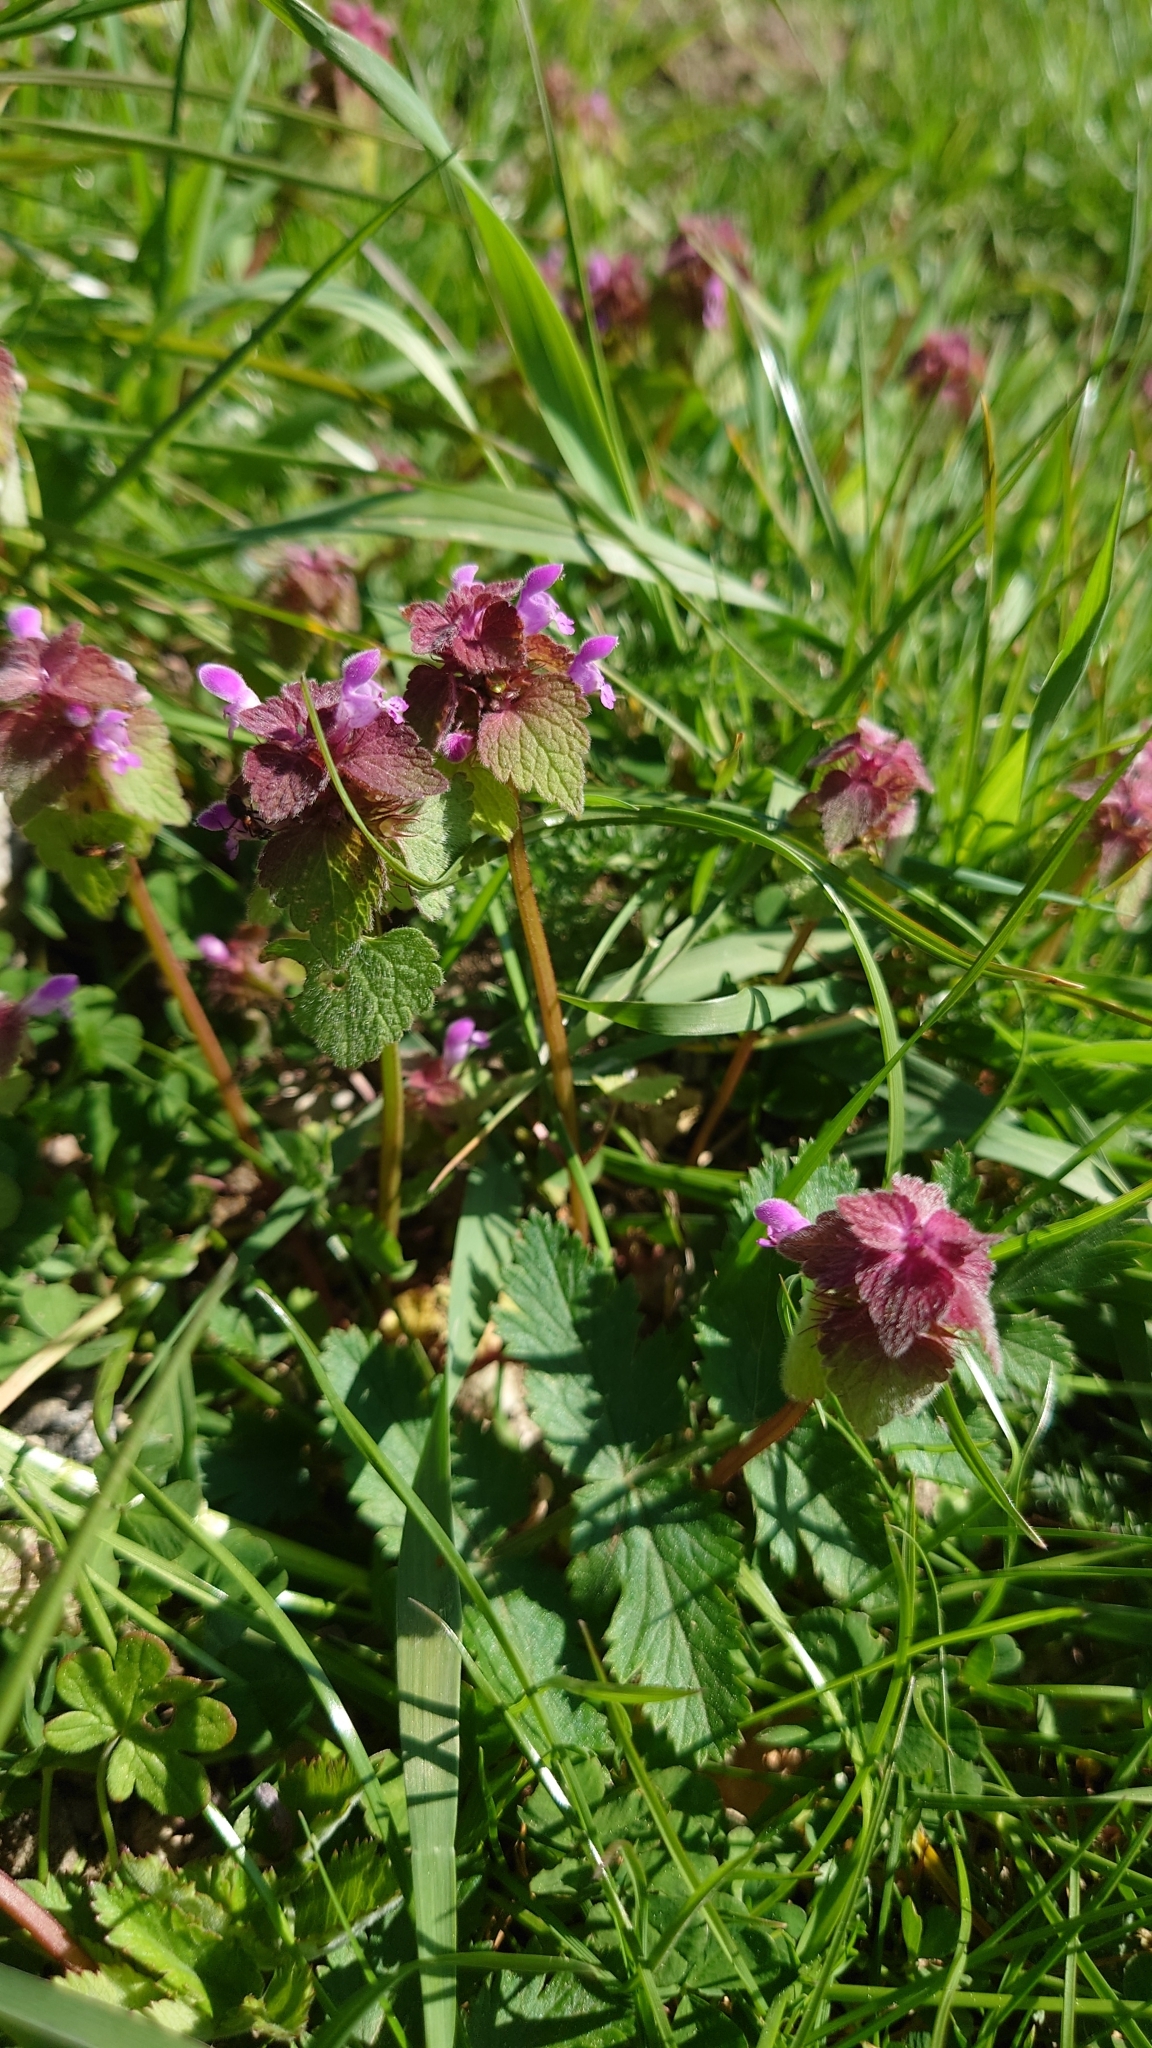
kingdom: Plantae
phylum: Tracheophyta
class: Magnoliopsida
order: Lamiales
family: Lamiaceae
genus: Lamium
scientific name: Lamium purpureum
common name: Red dead-nettle
